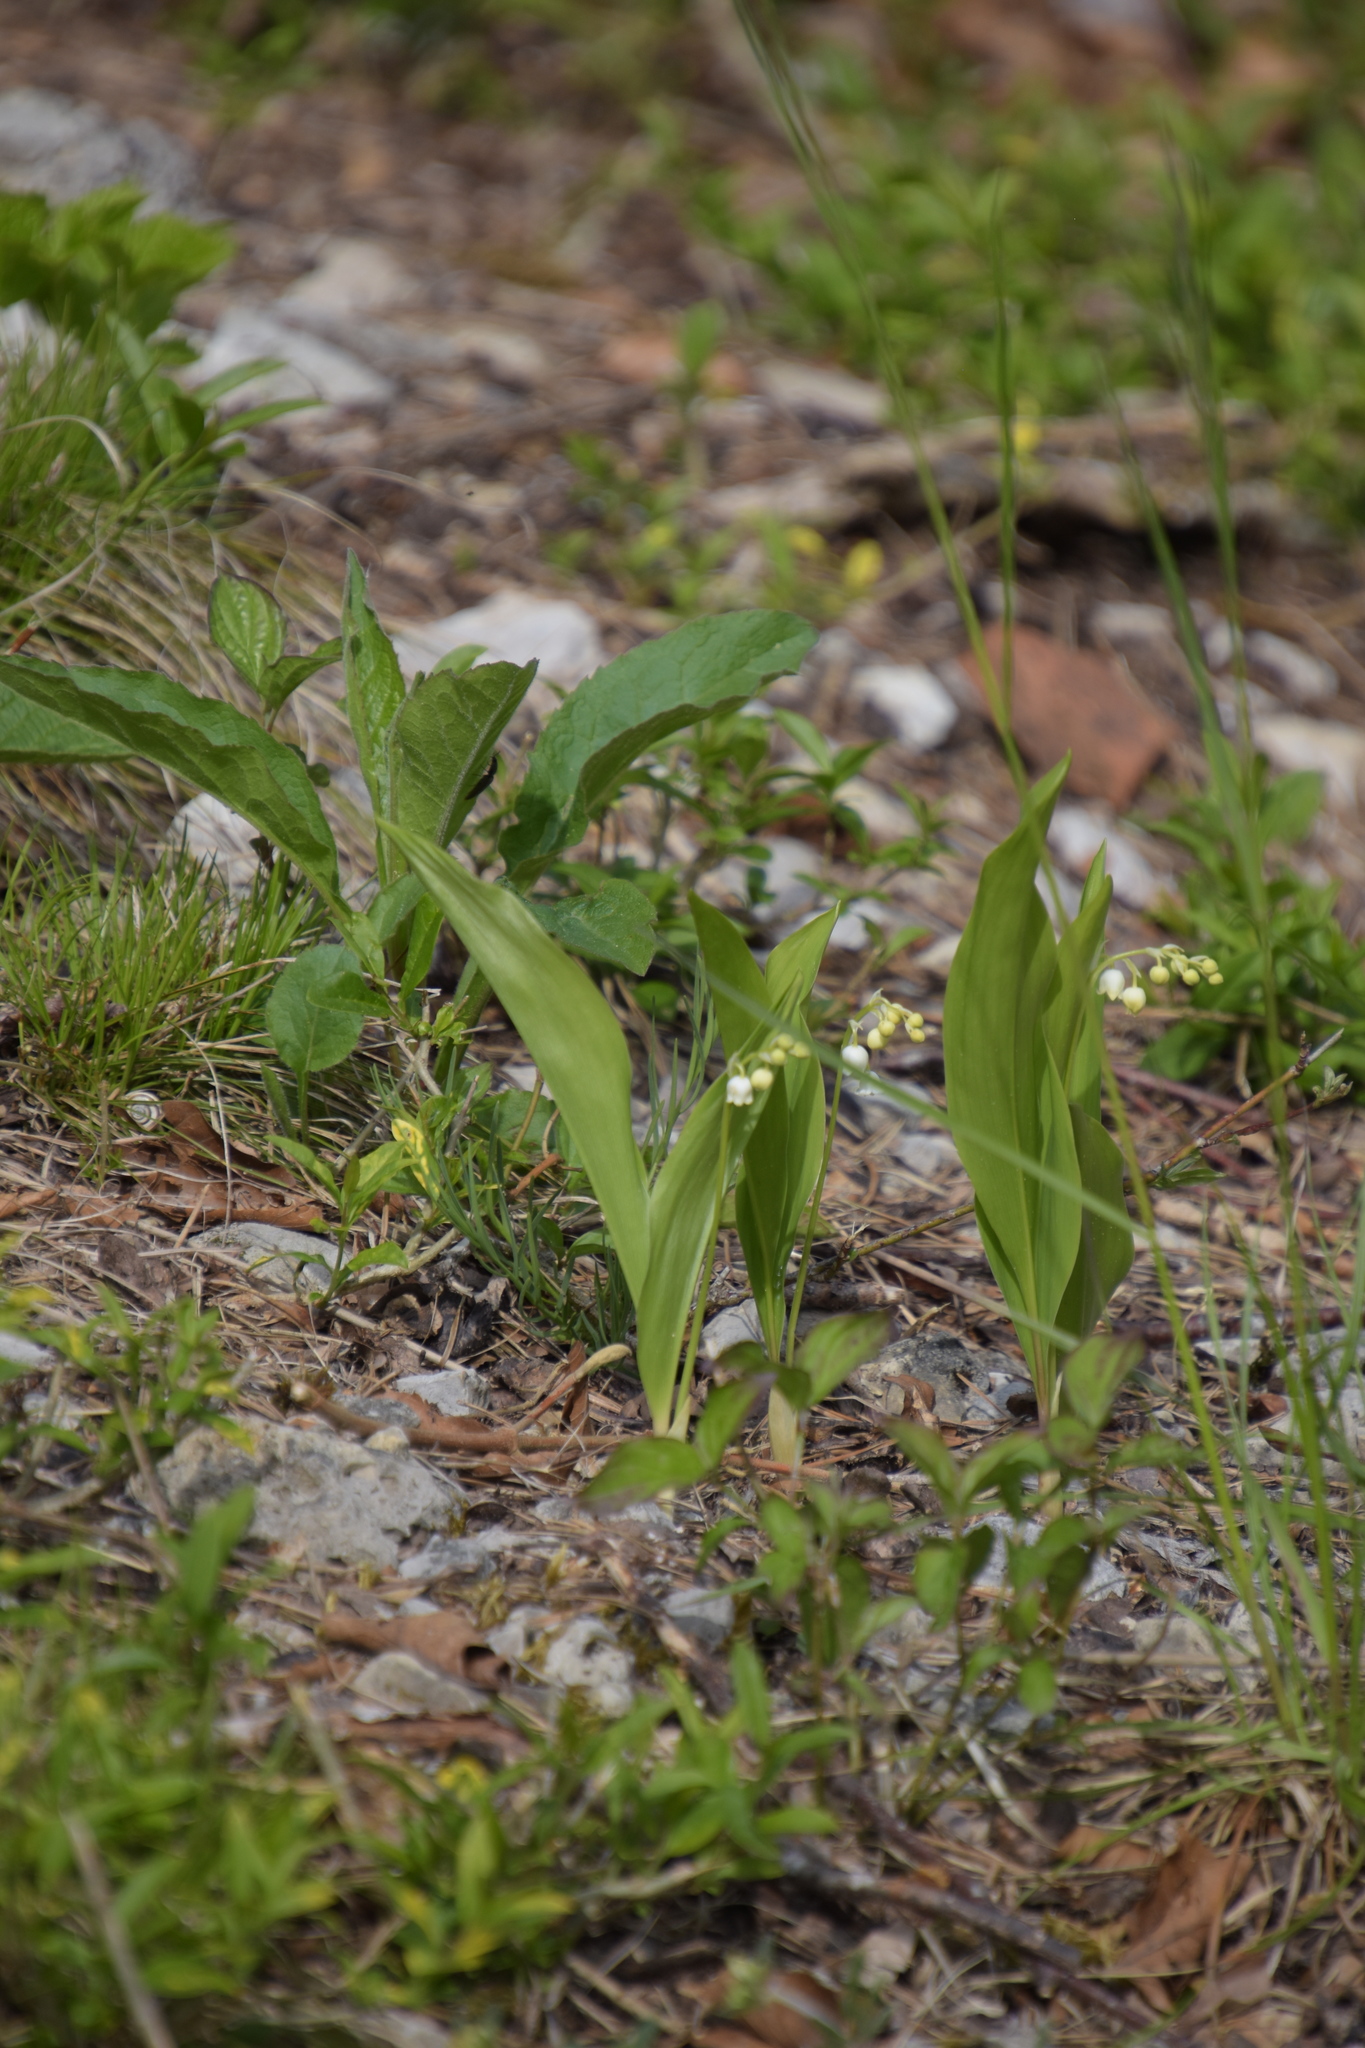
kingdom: Plantae
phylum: Tracheophyta
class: Liliopsida
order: Asparagales
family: Asparagaceae
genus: Convallaria
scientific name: Convallaria majalis
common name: Lily-of-the-valley
